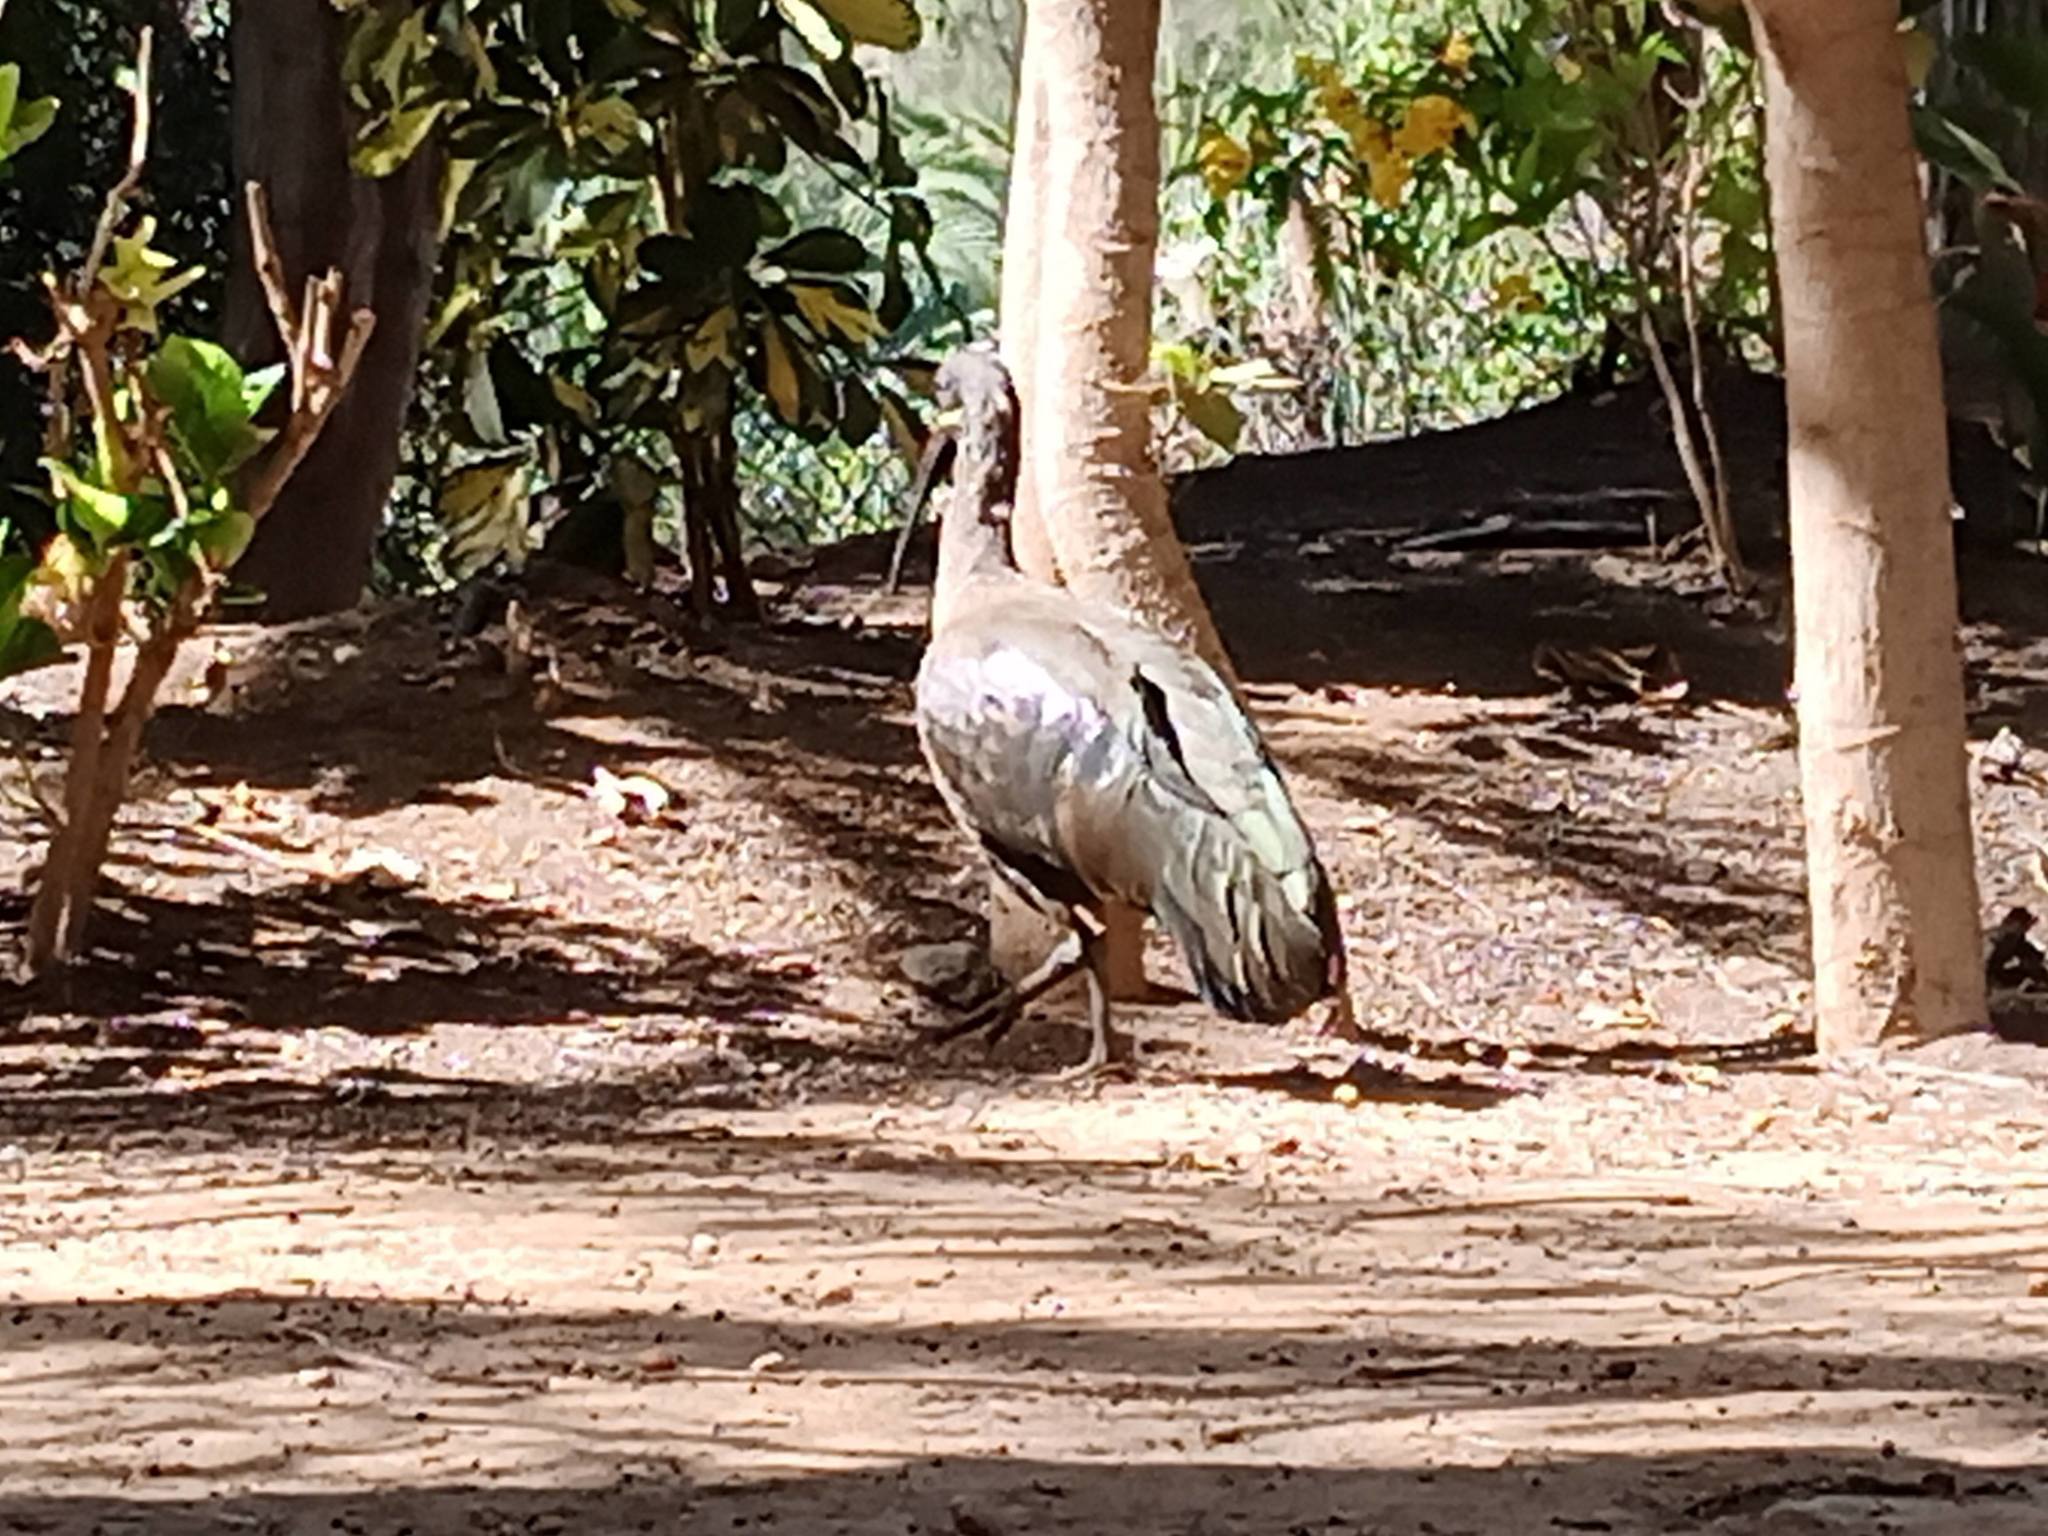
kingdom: Animalia
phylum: Chordata
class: Aves
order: Pelecaniformes
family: Threskiornithidae
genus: Bostrychia
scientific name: Bostrychia hagedash
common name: Hadada ibis
